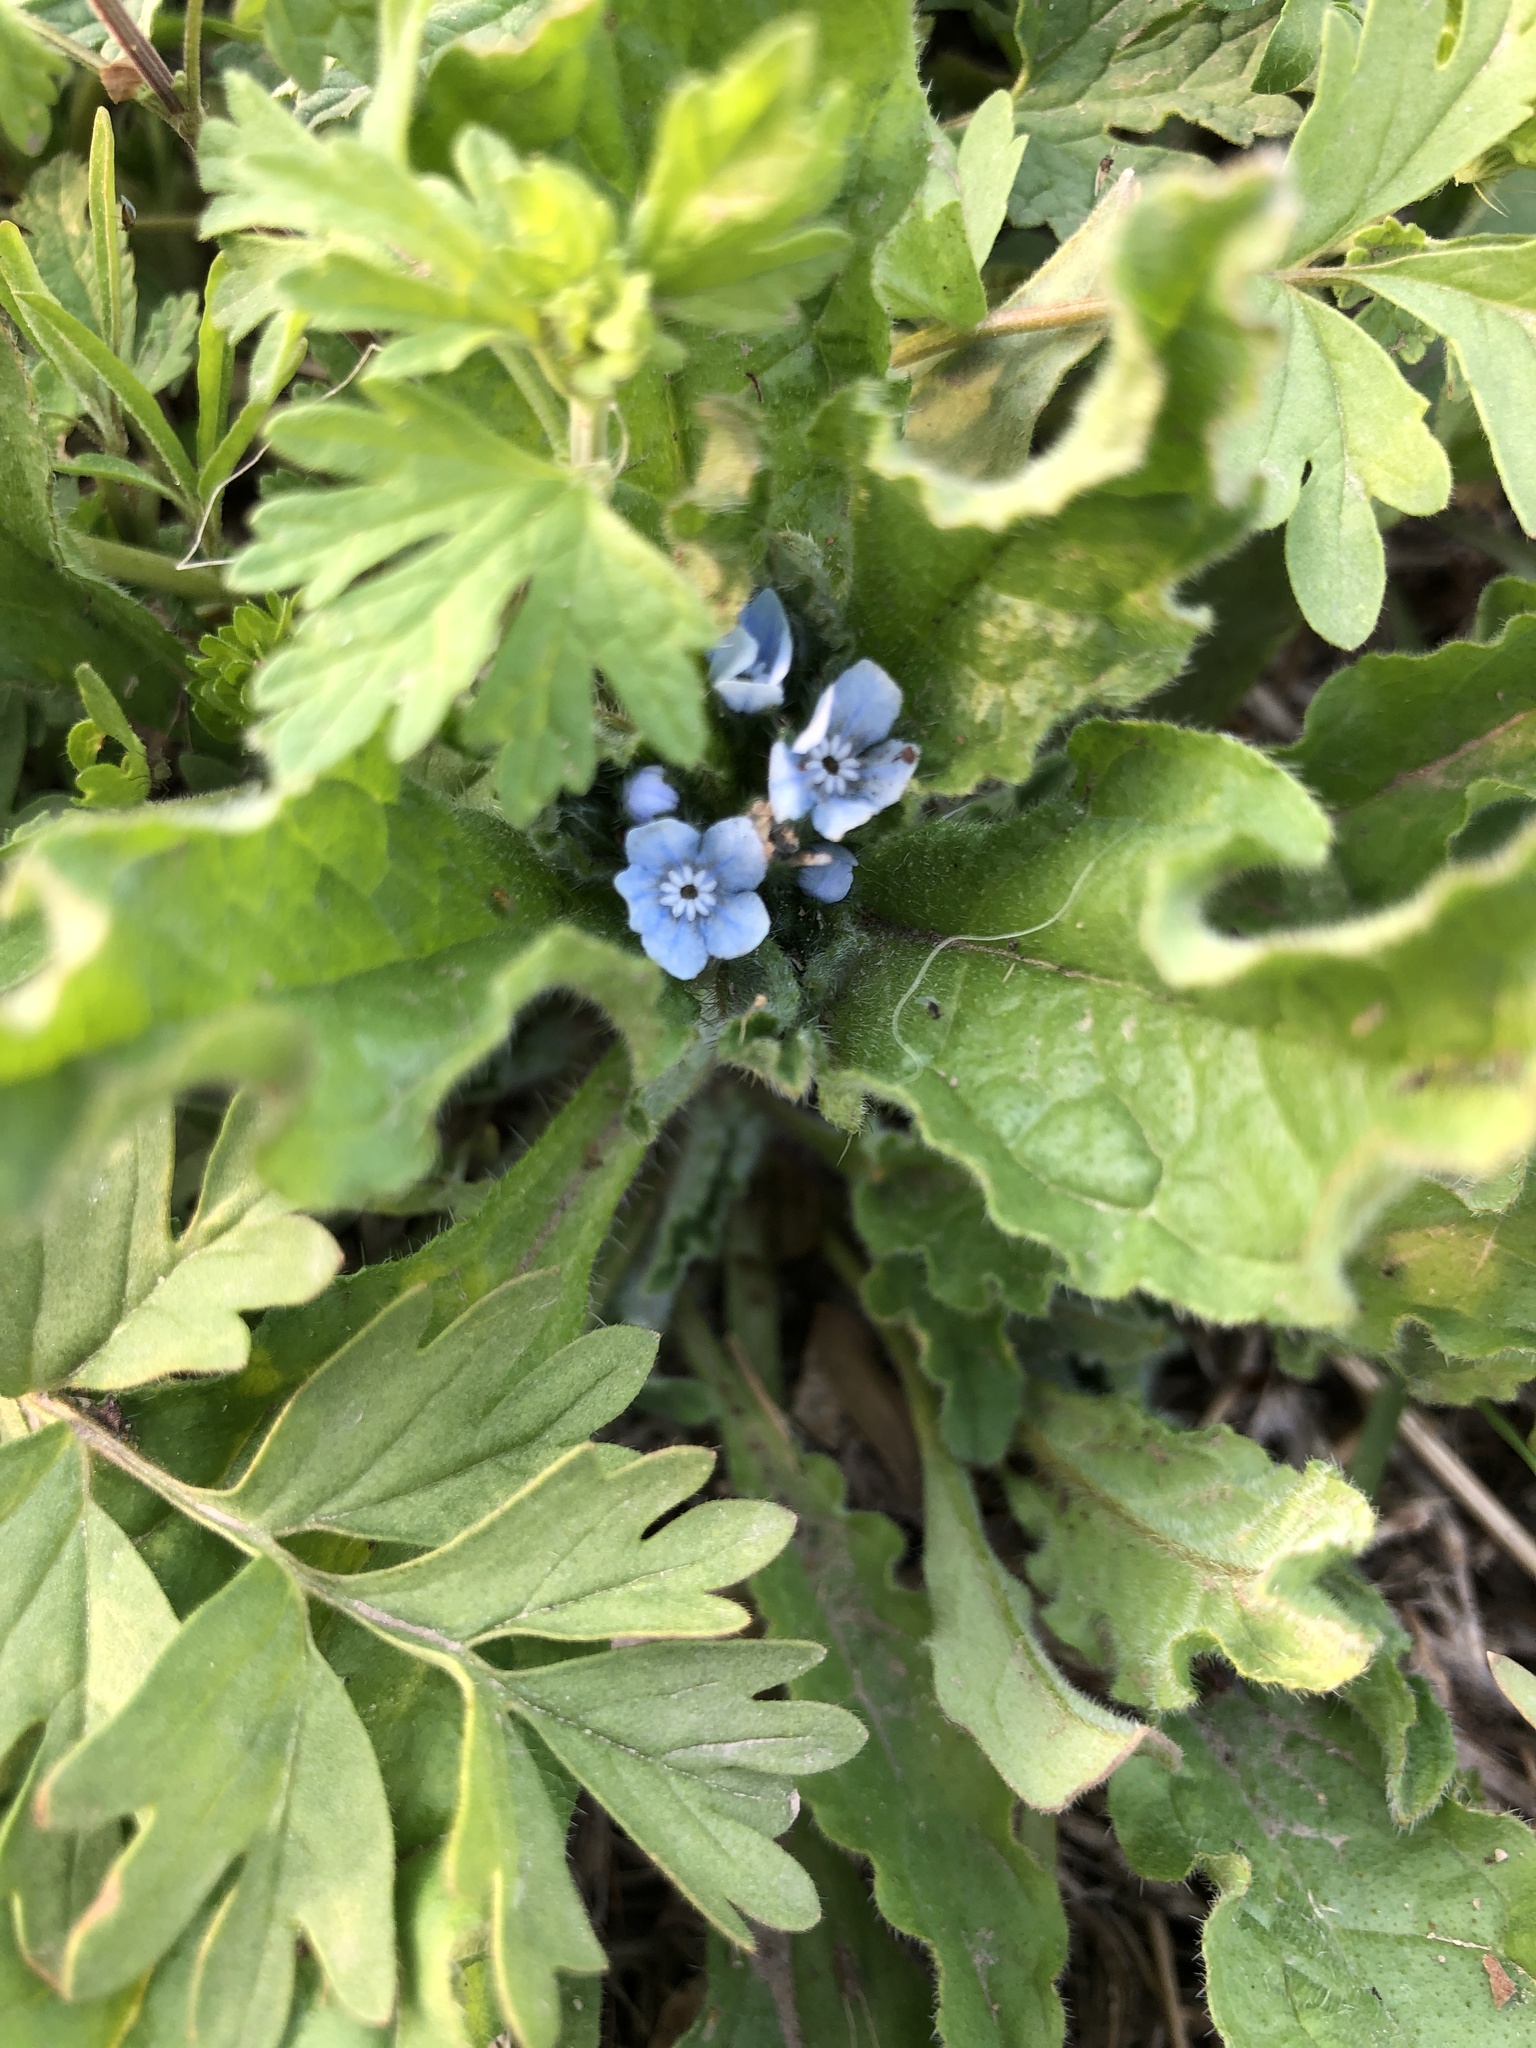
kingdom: Plantae
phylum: Tracheophyta
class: Magnoliopsida
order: Boraginales
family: Boraginaceae
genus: Bothriospermum
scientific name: Bothriospermum chinense
